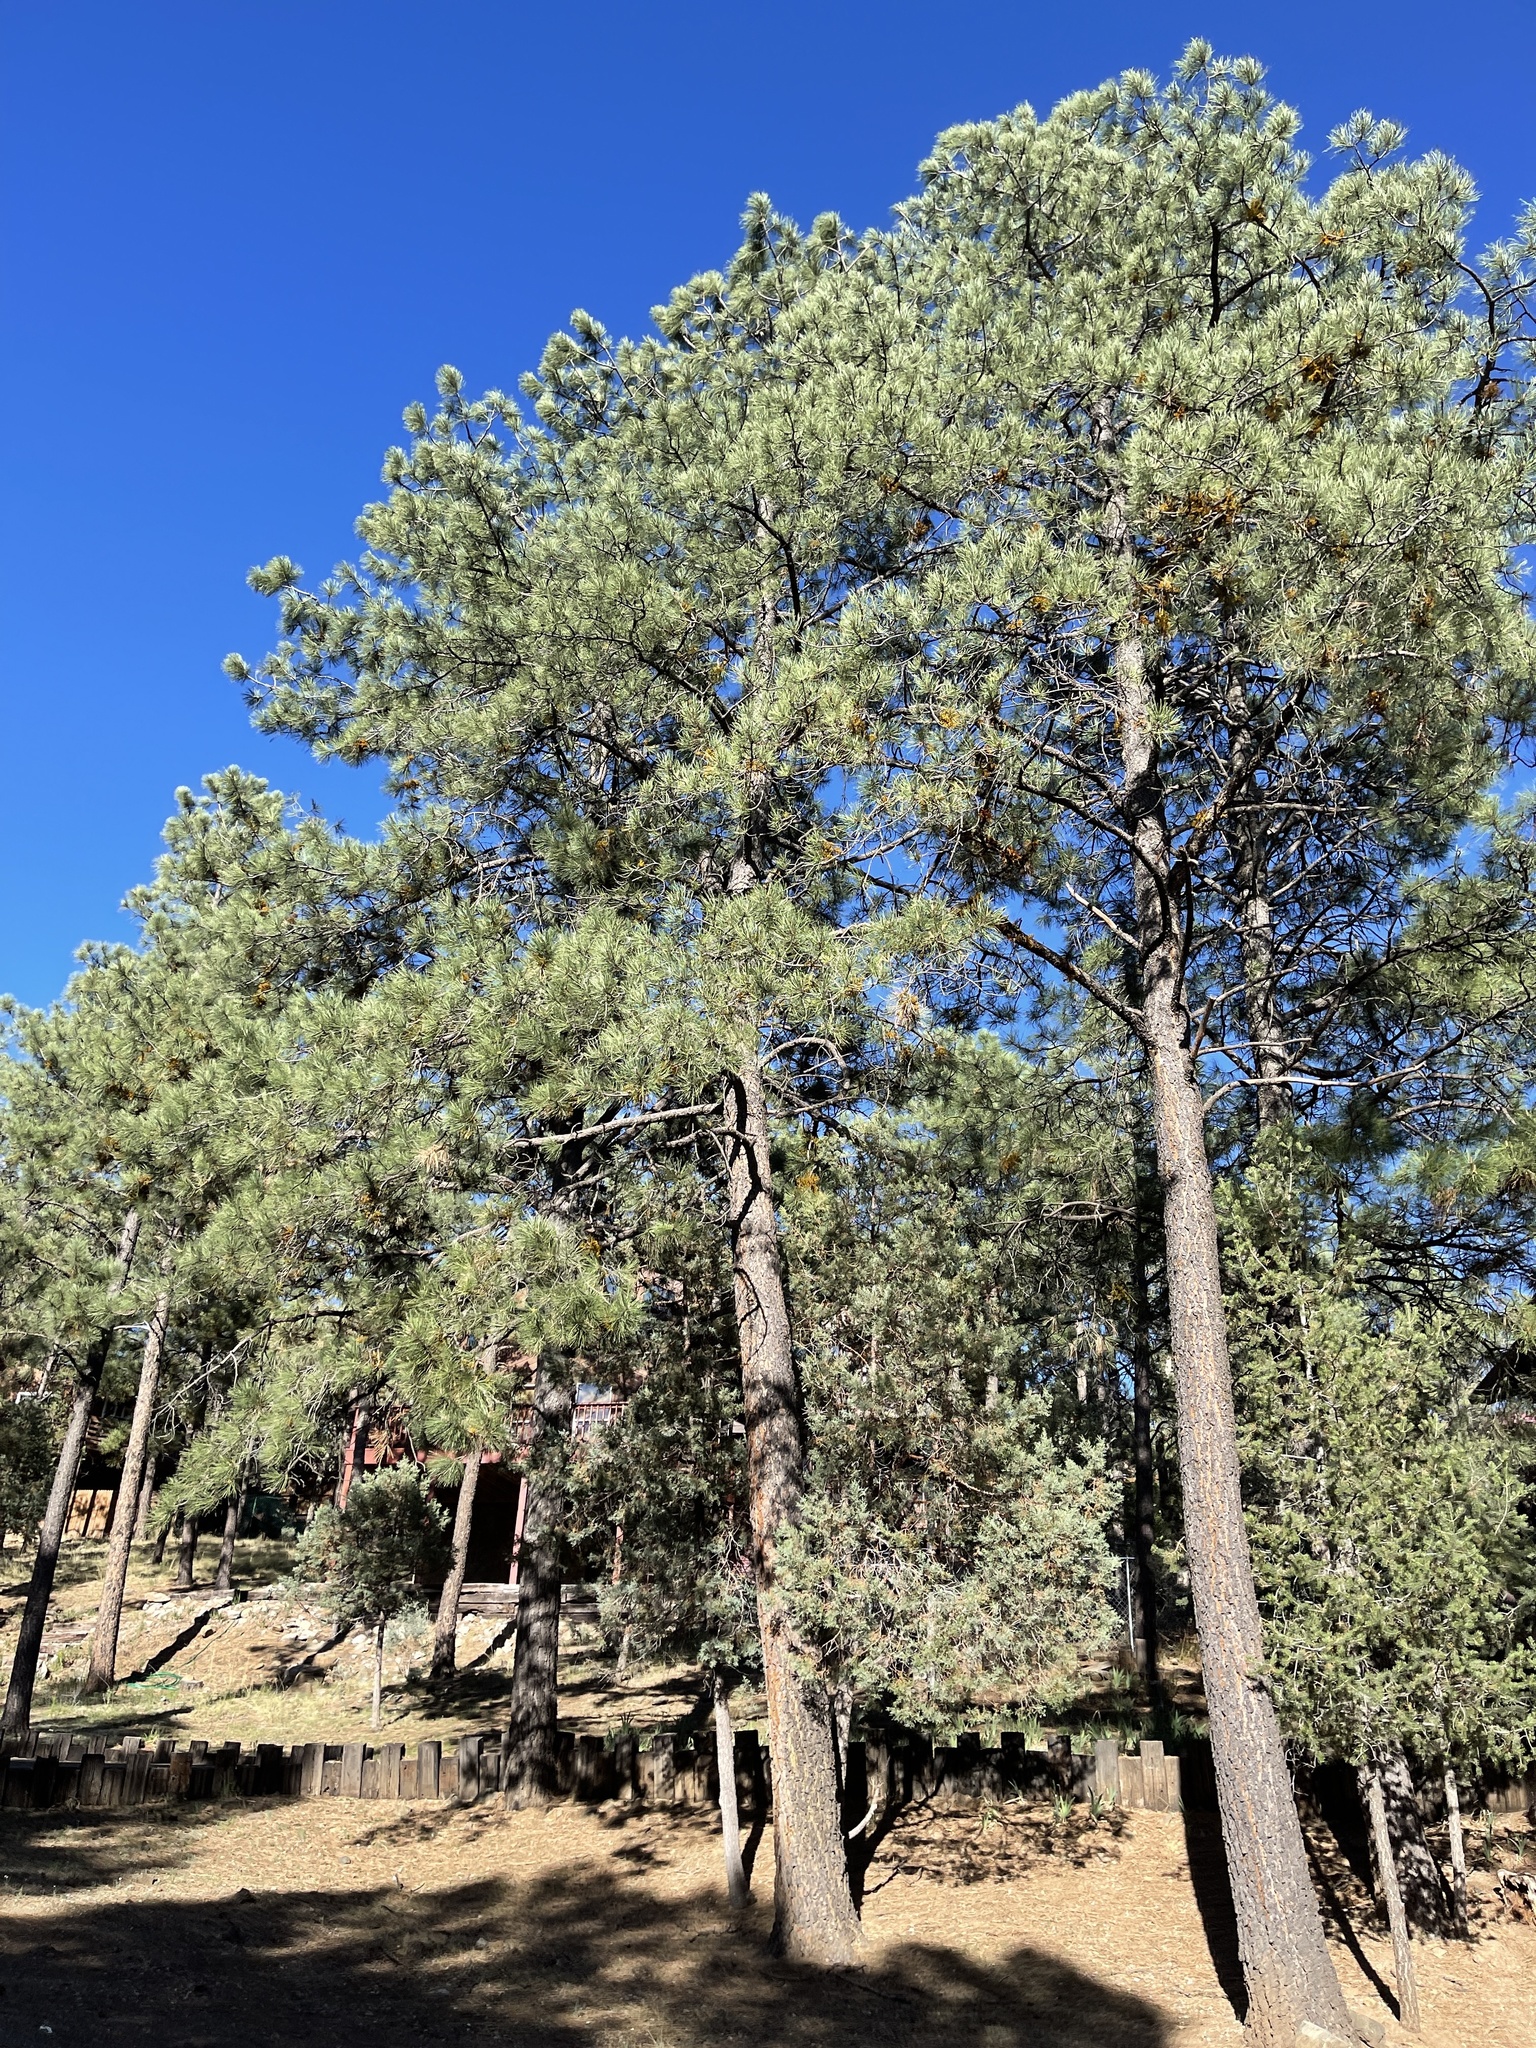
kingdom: Plantae
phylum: Tracheophyta
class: Pinopsida
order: Pinales
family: Pinaceae
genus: Pinus
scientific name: Pinus ponderosa
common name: Western yellow-pine
